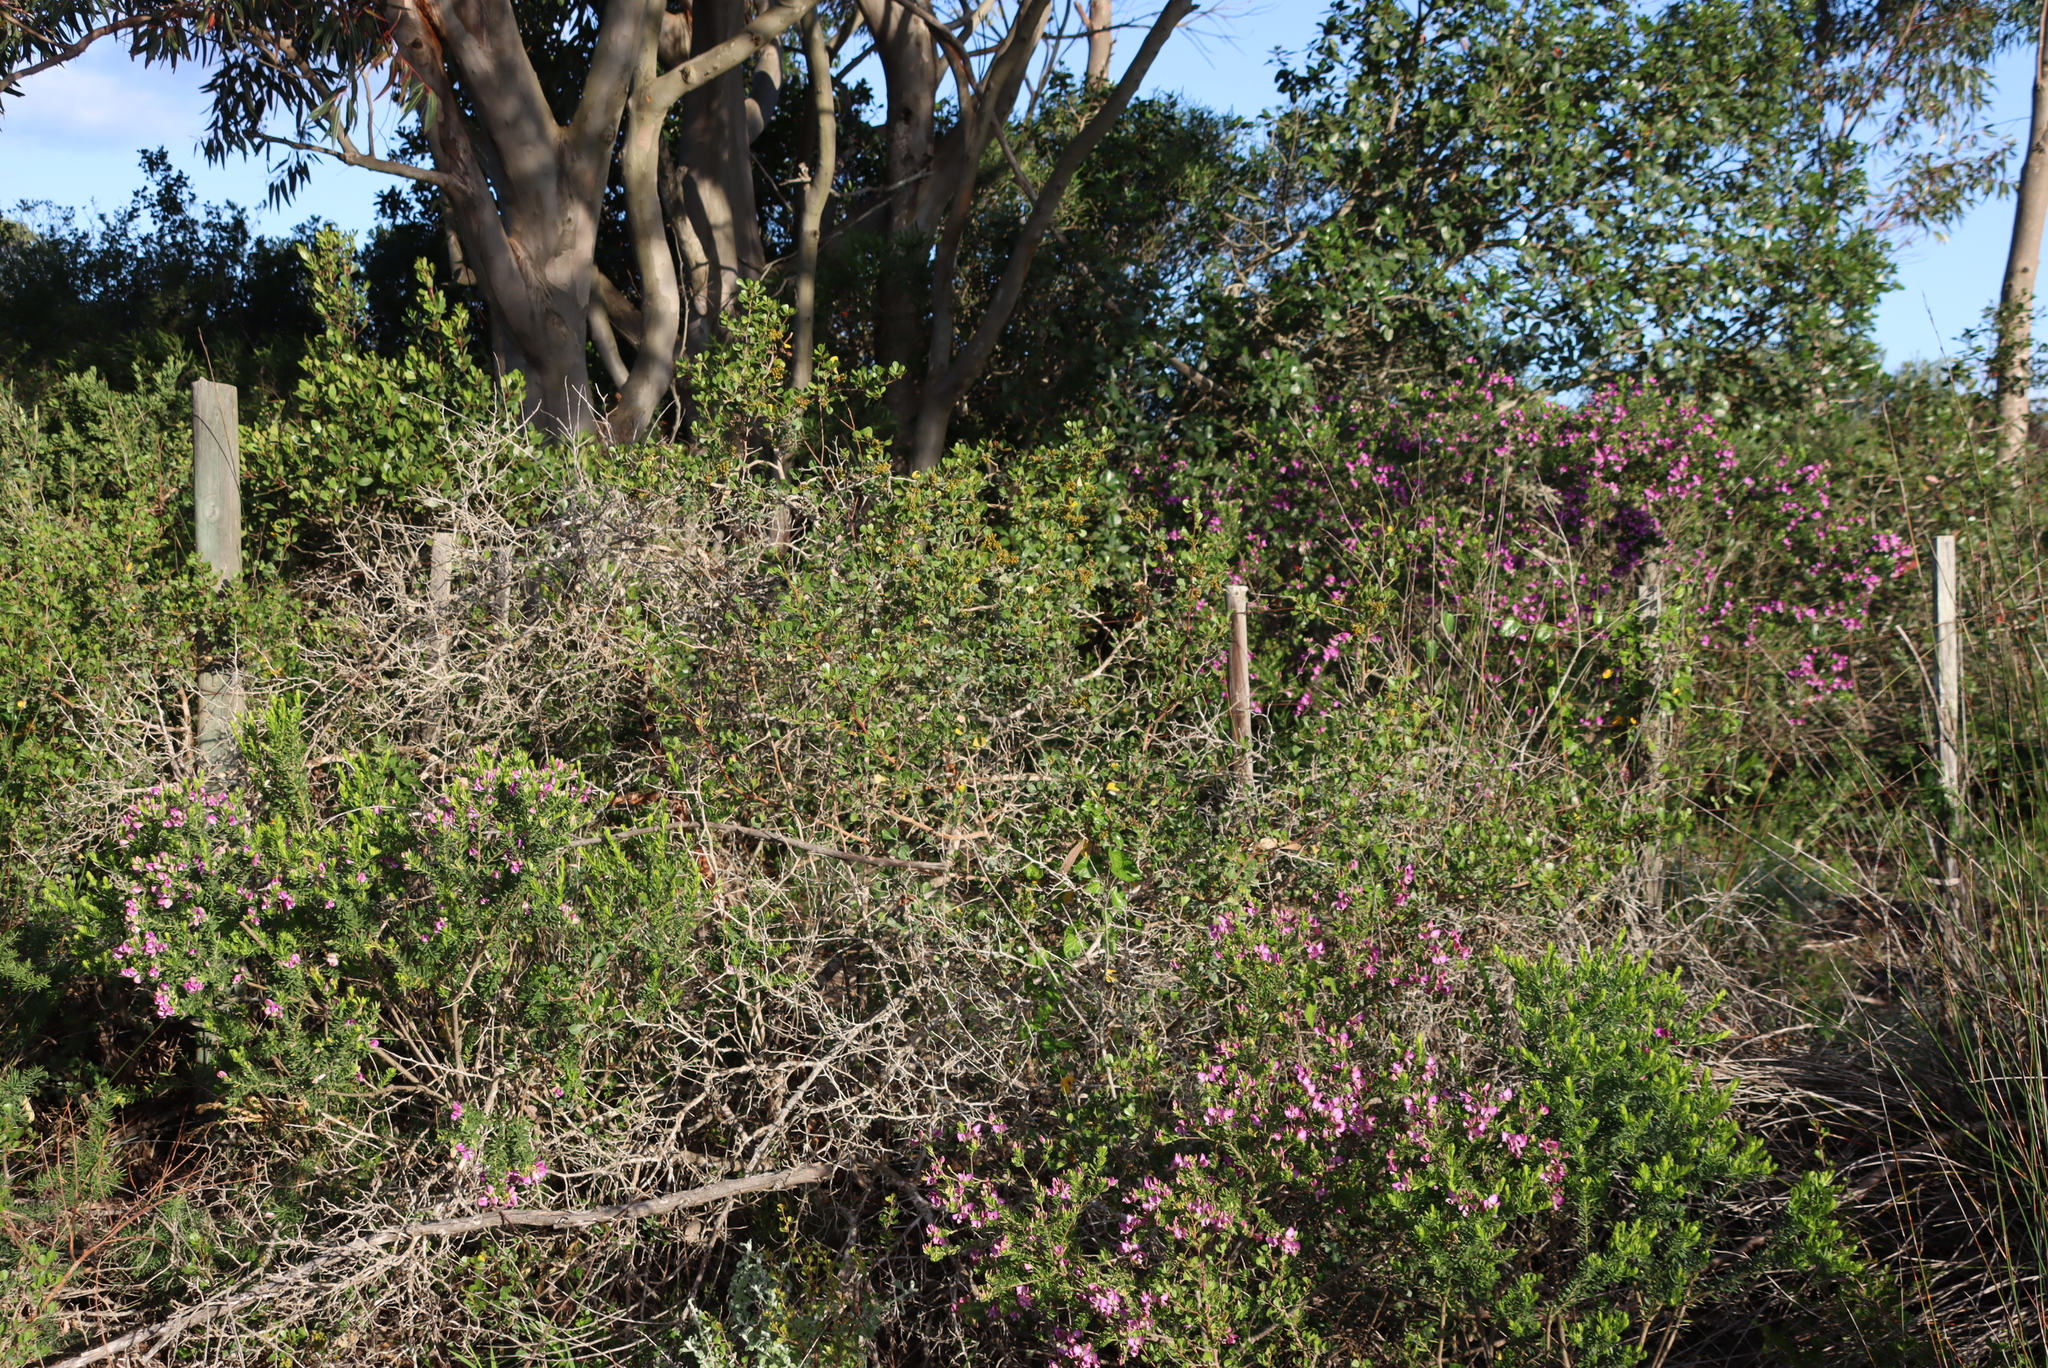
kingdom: Plantae
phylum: Tracheophyta
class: Magnoliopsida
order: Sapindales
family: Anacardiaceae
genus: Searsia
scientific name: Searsia glauca
